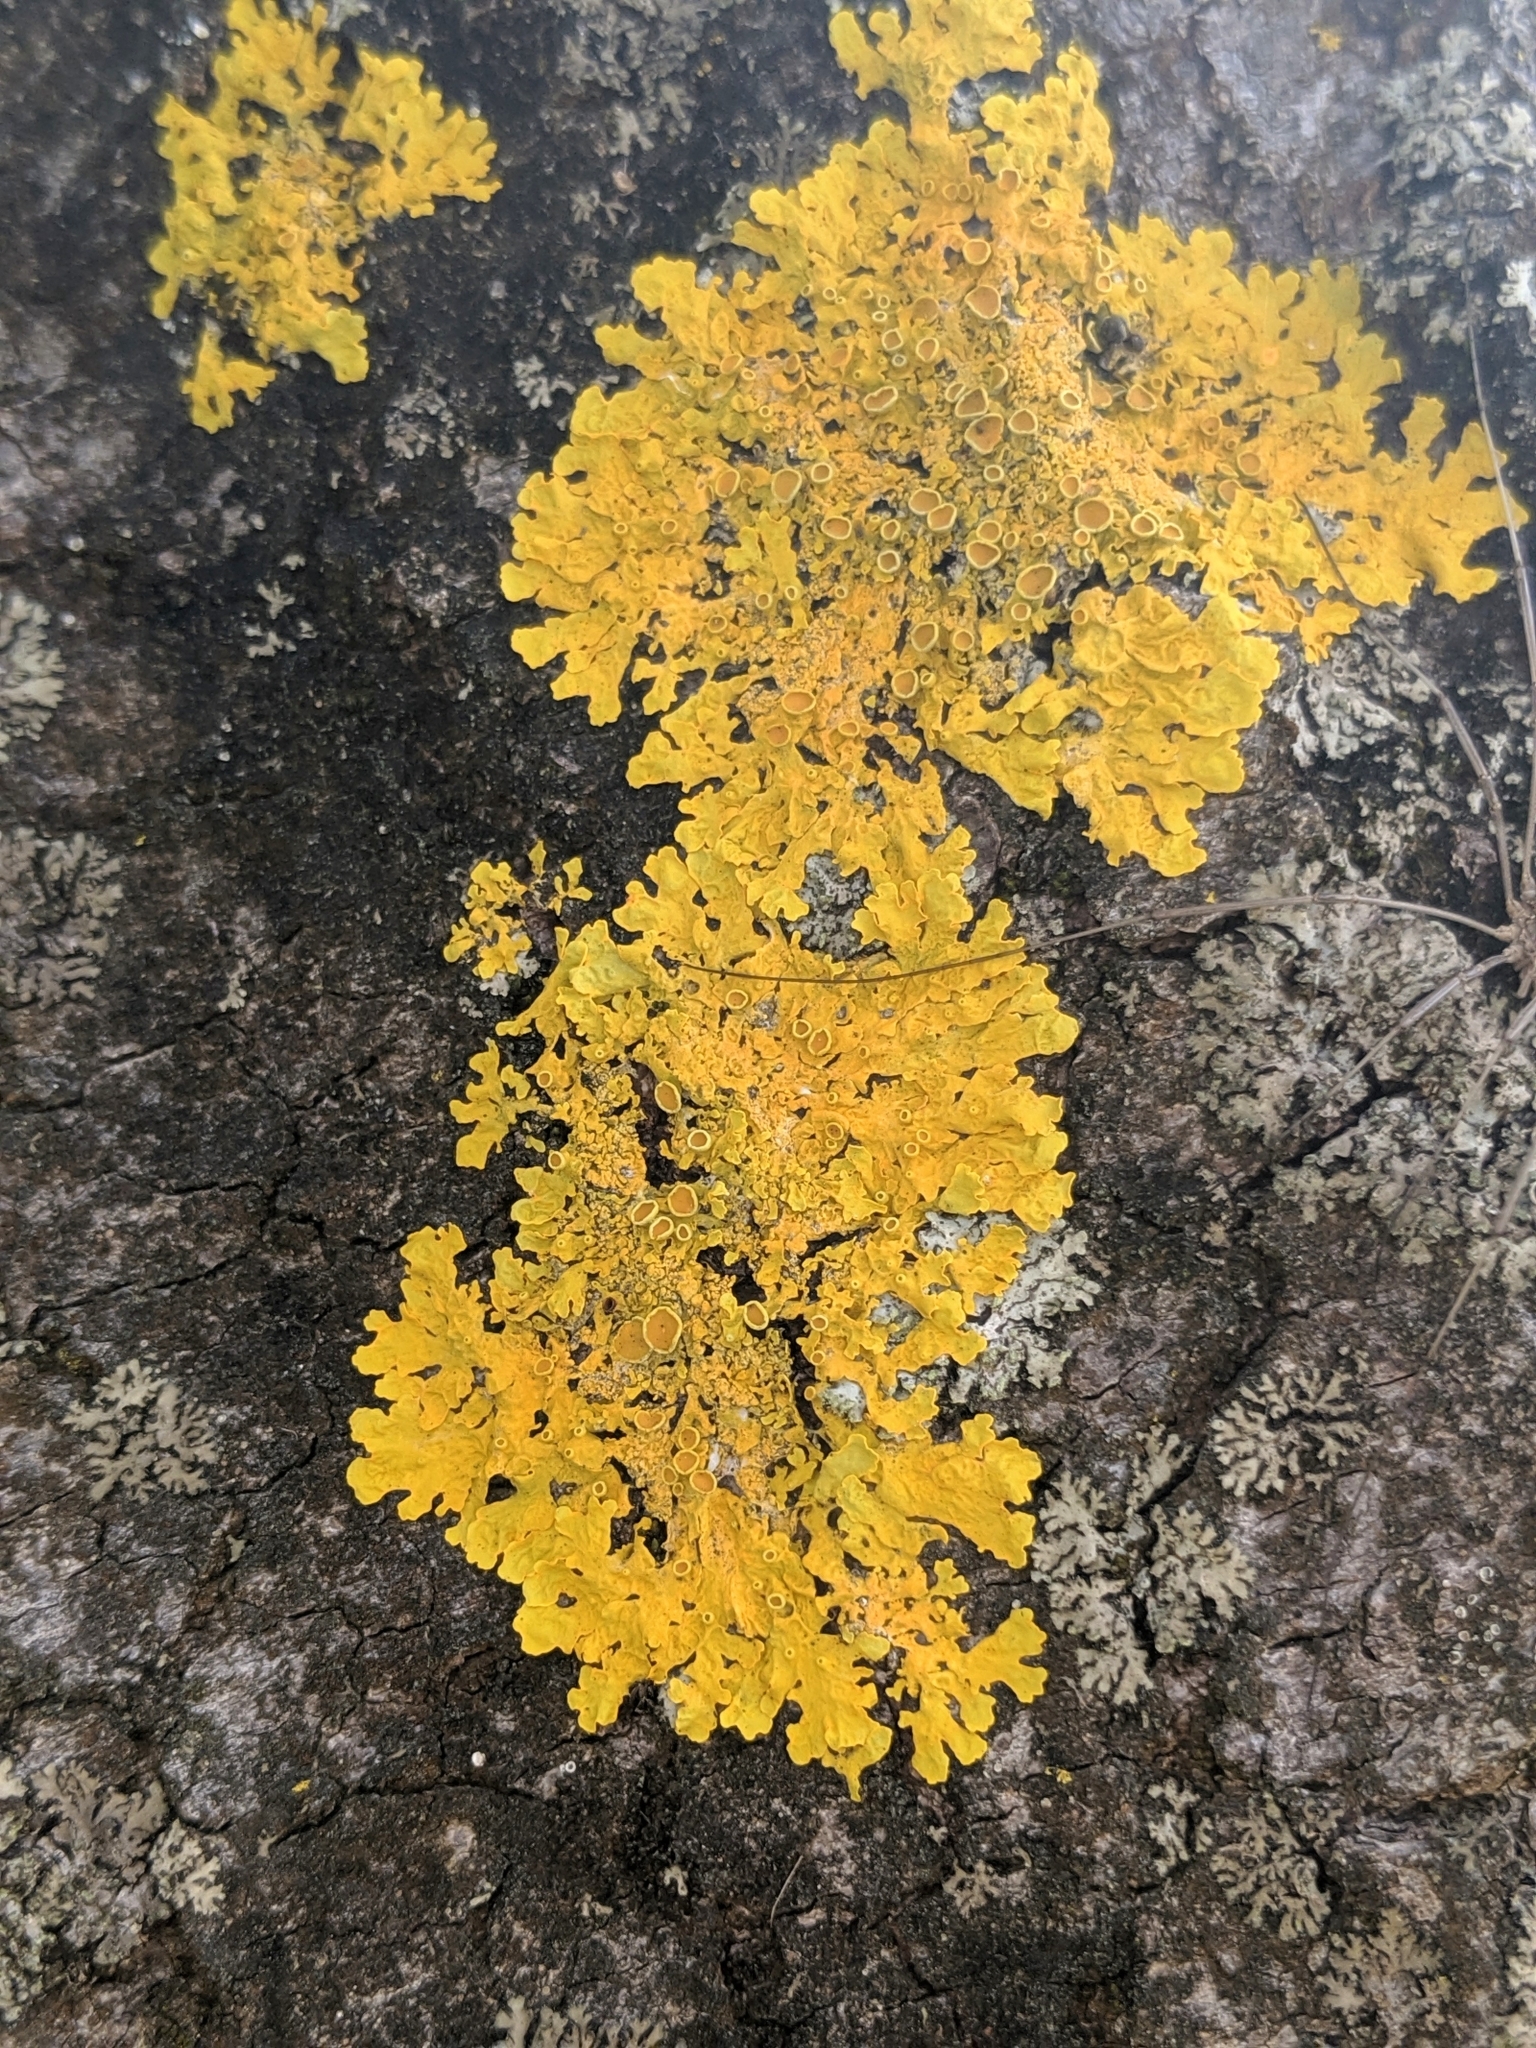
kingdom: Fungi
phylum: Ascomycota
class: Lecanoromycetes
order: Teloschistales
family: Teloschistaceae
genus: Xanthoria
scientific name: Xanthoria parietina
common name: Common orange lichen
